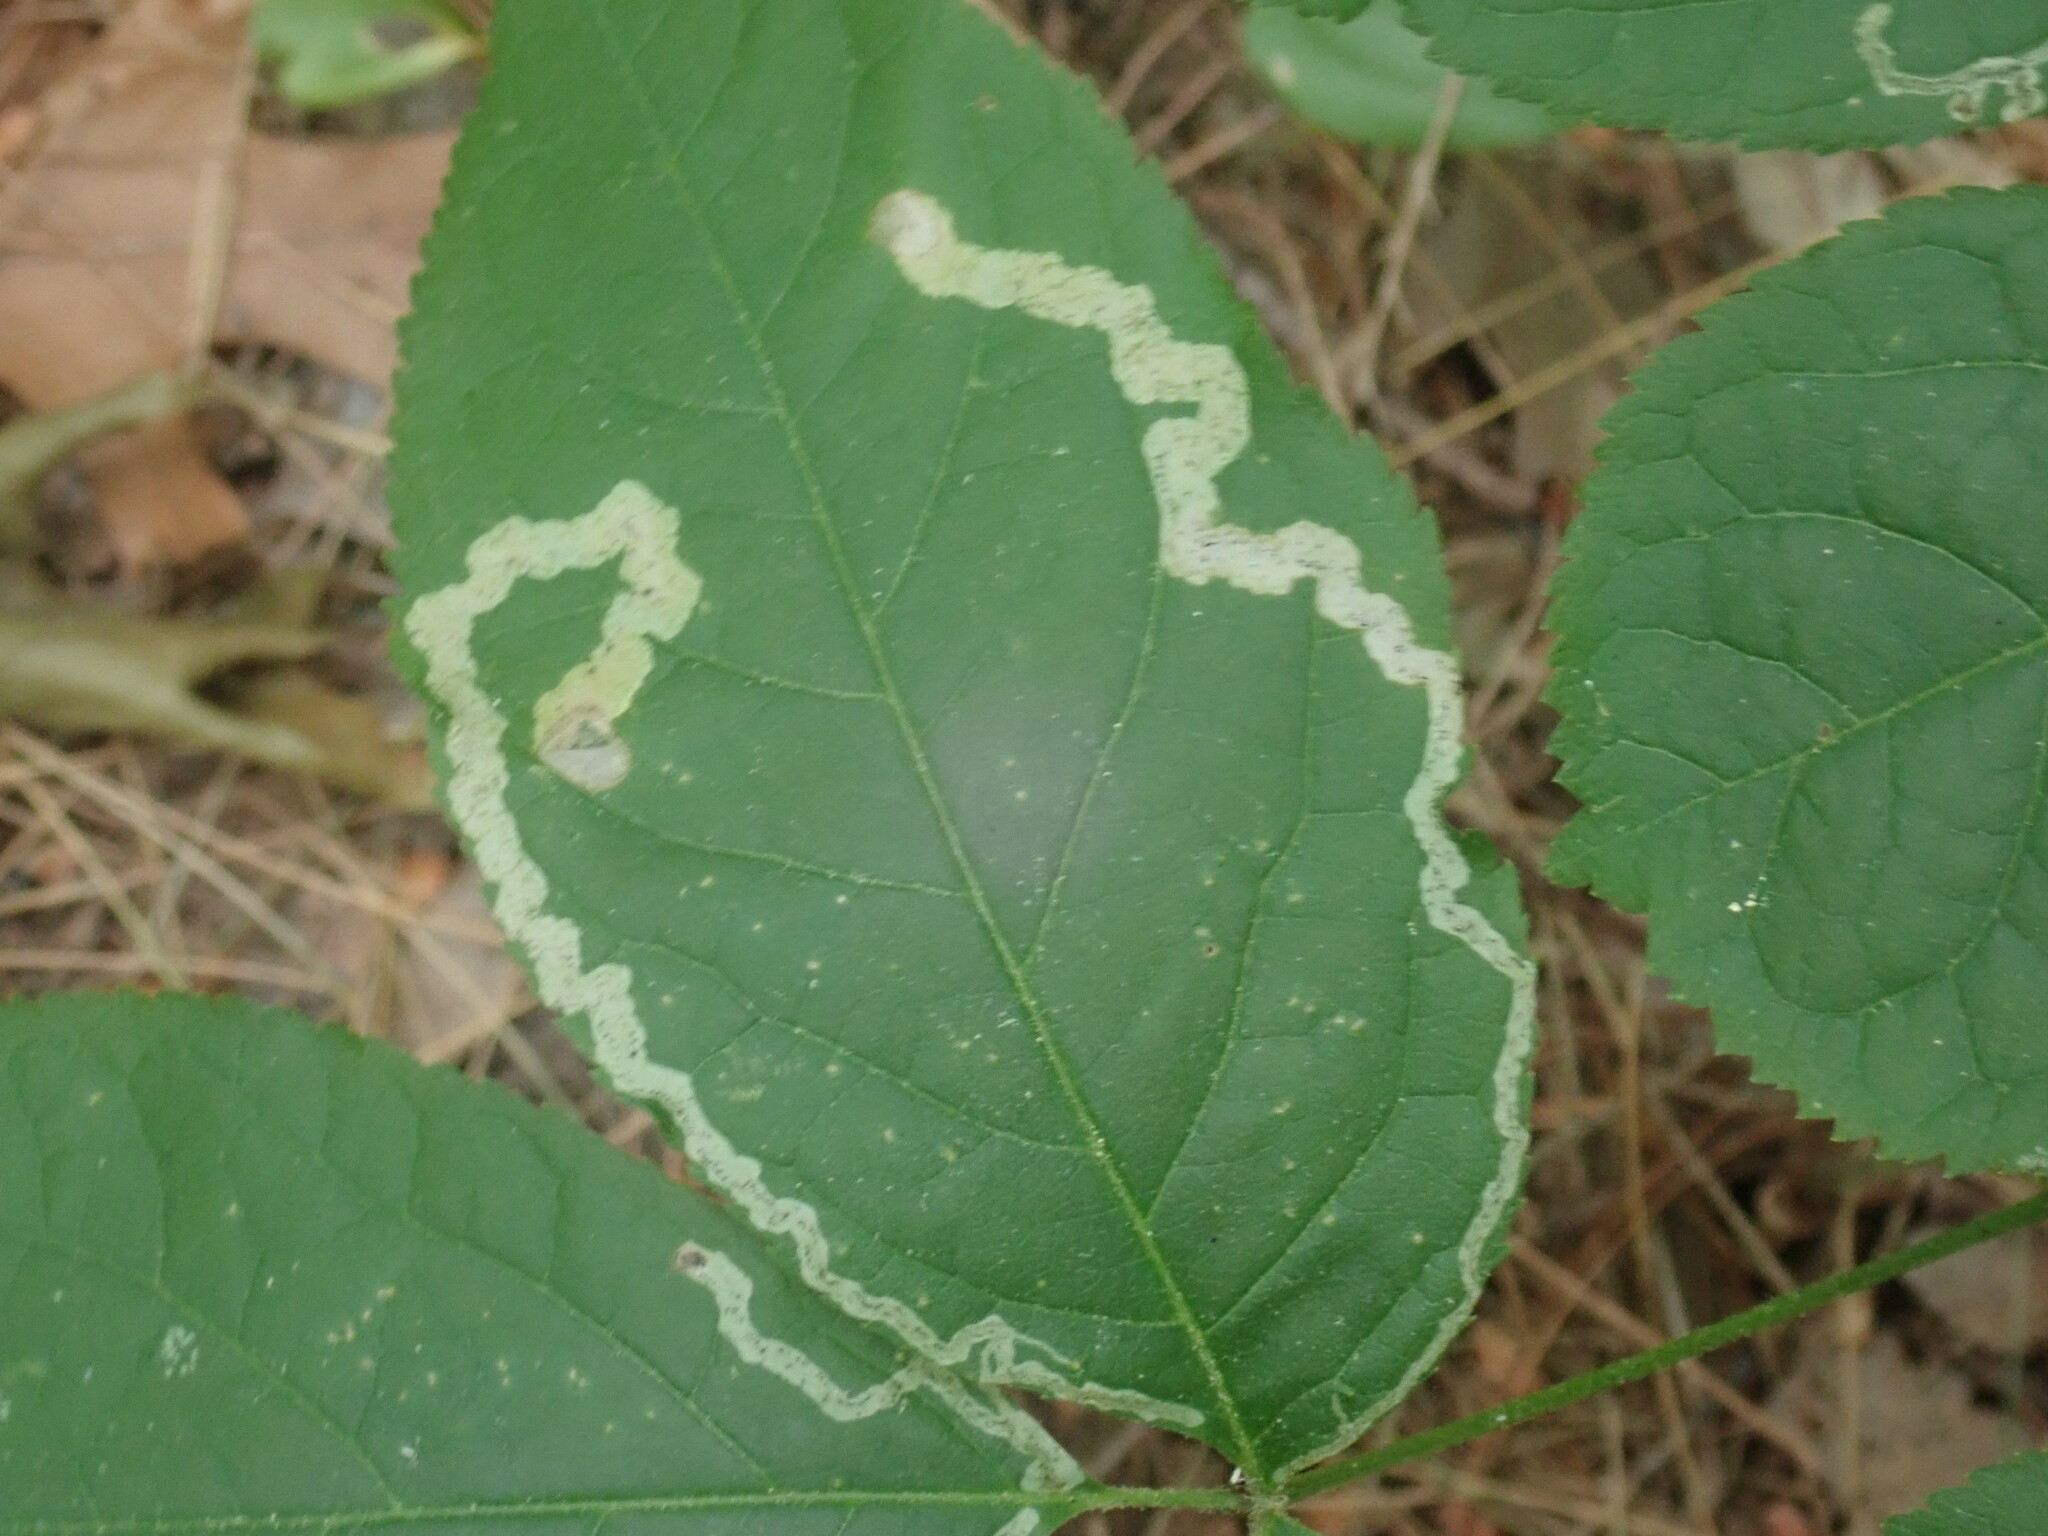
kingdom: Animalia
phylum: Arthropoda
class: Insecta
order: Diptera
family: Agromyzidae
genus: Phytomyza
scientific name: Phytomyza aralivora
